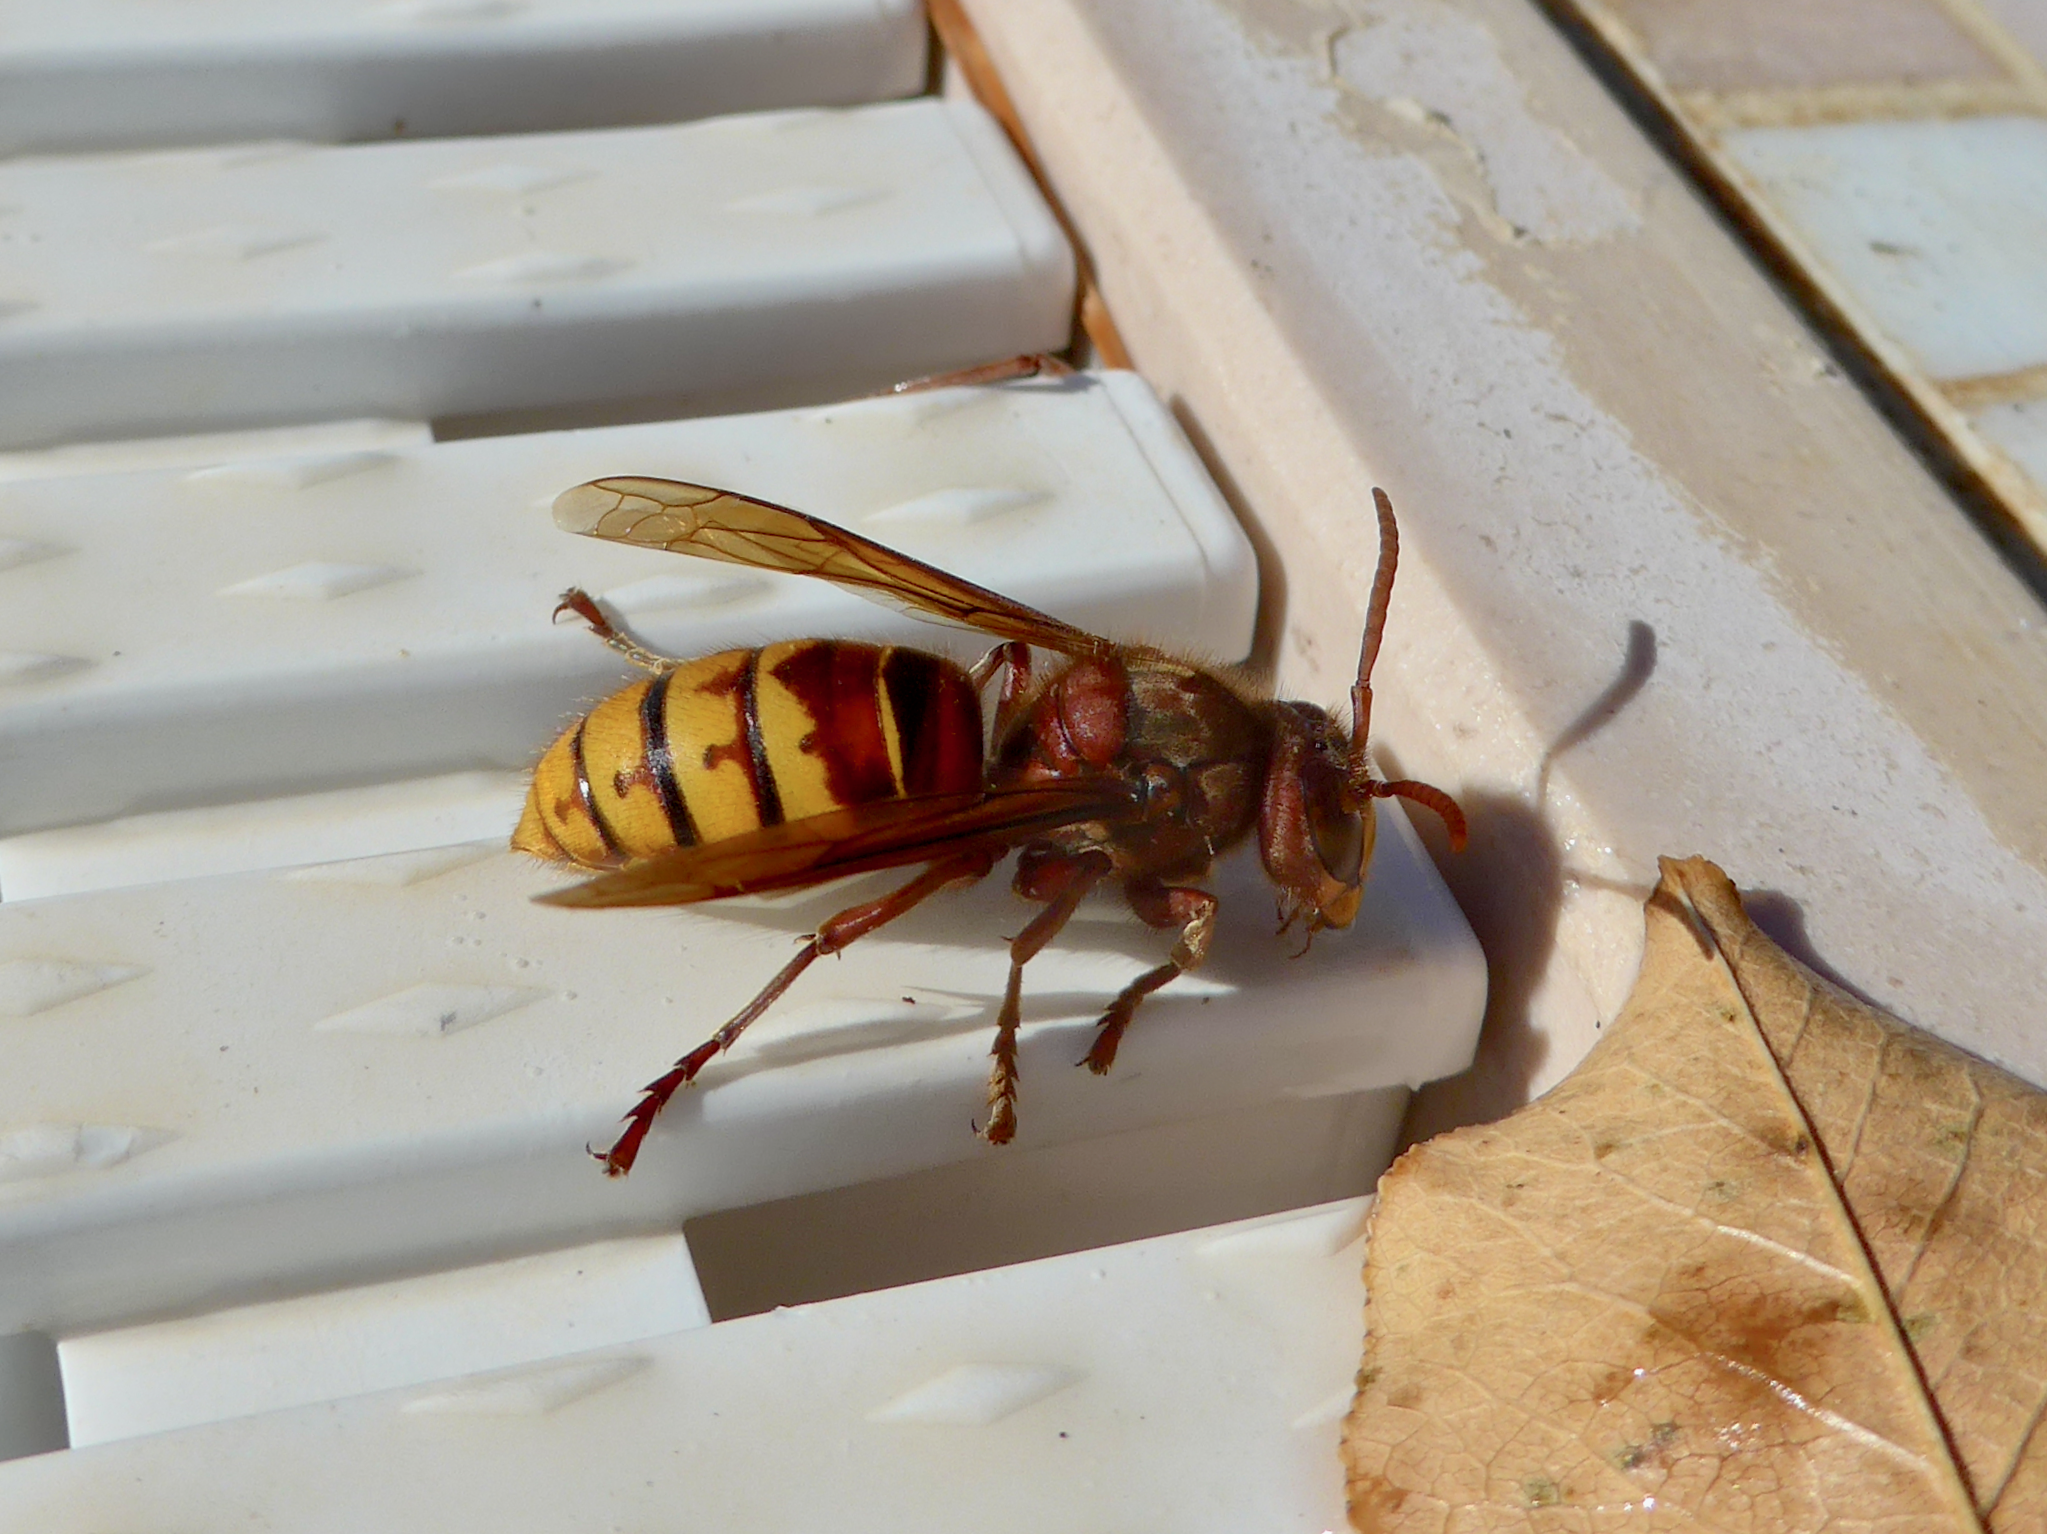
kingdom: Animalia
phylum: Arthropoda
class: Insecta
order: Hymenoptera
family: Vespidae
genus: Vespa
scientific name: Vespa crabro
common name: Hornet
